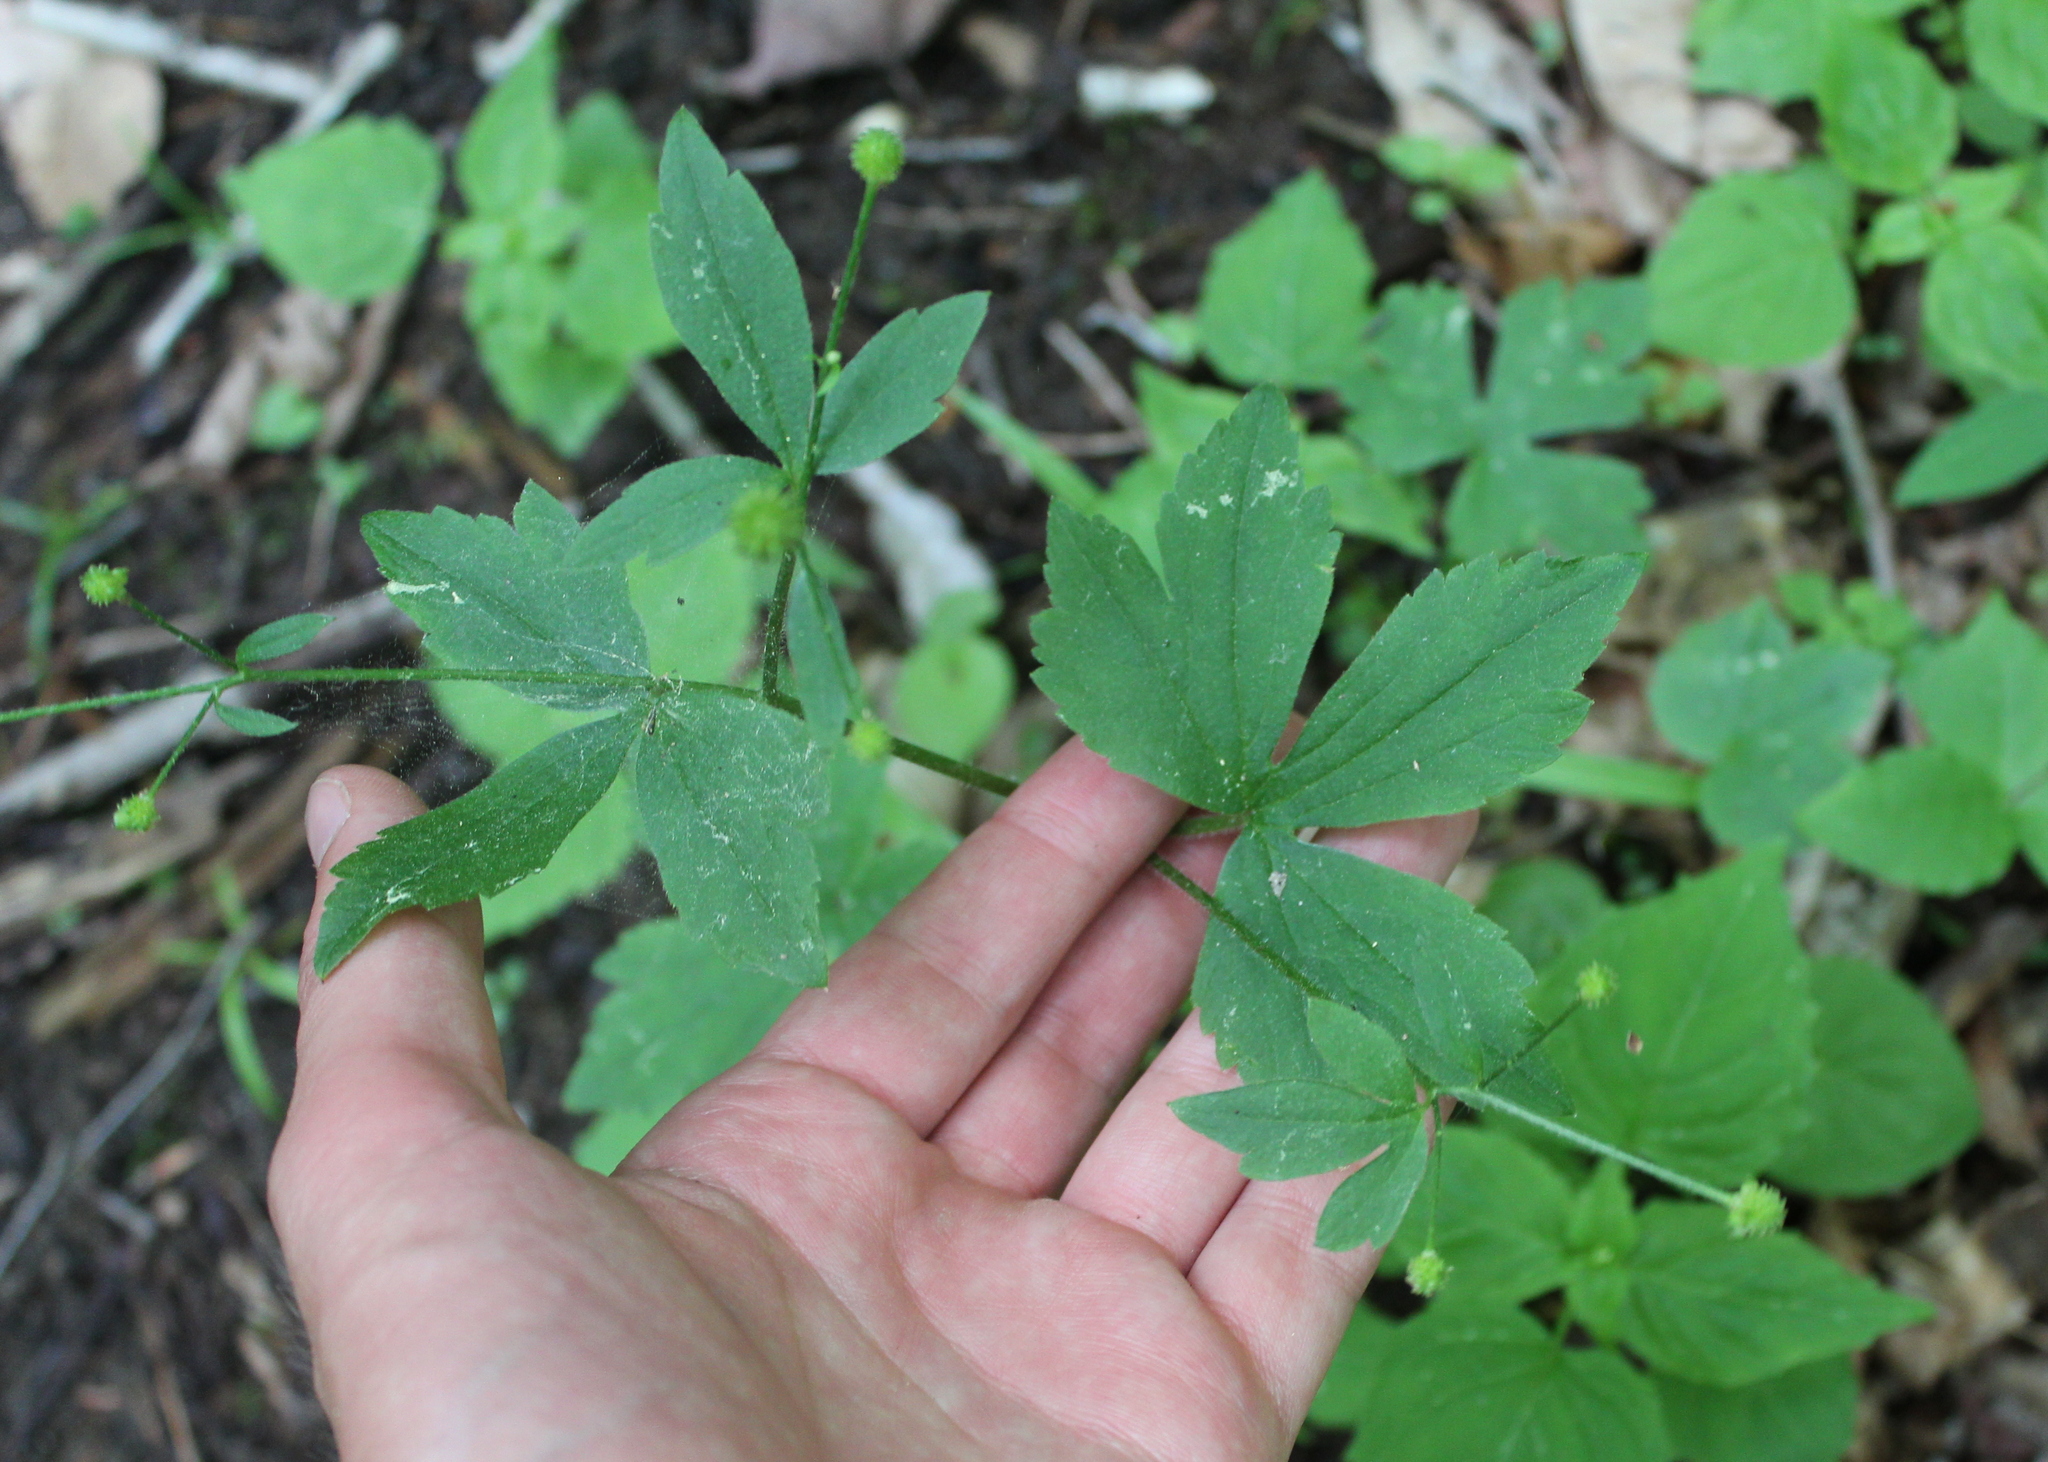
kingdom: Plantae
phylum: Tracheophyta
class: Magnoliopsida
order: Ranunculales
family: Ranunculaceae
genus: Ranunculus
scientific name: Ranunculus recurvatus
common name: Blisterwort
